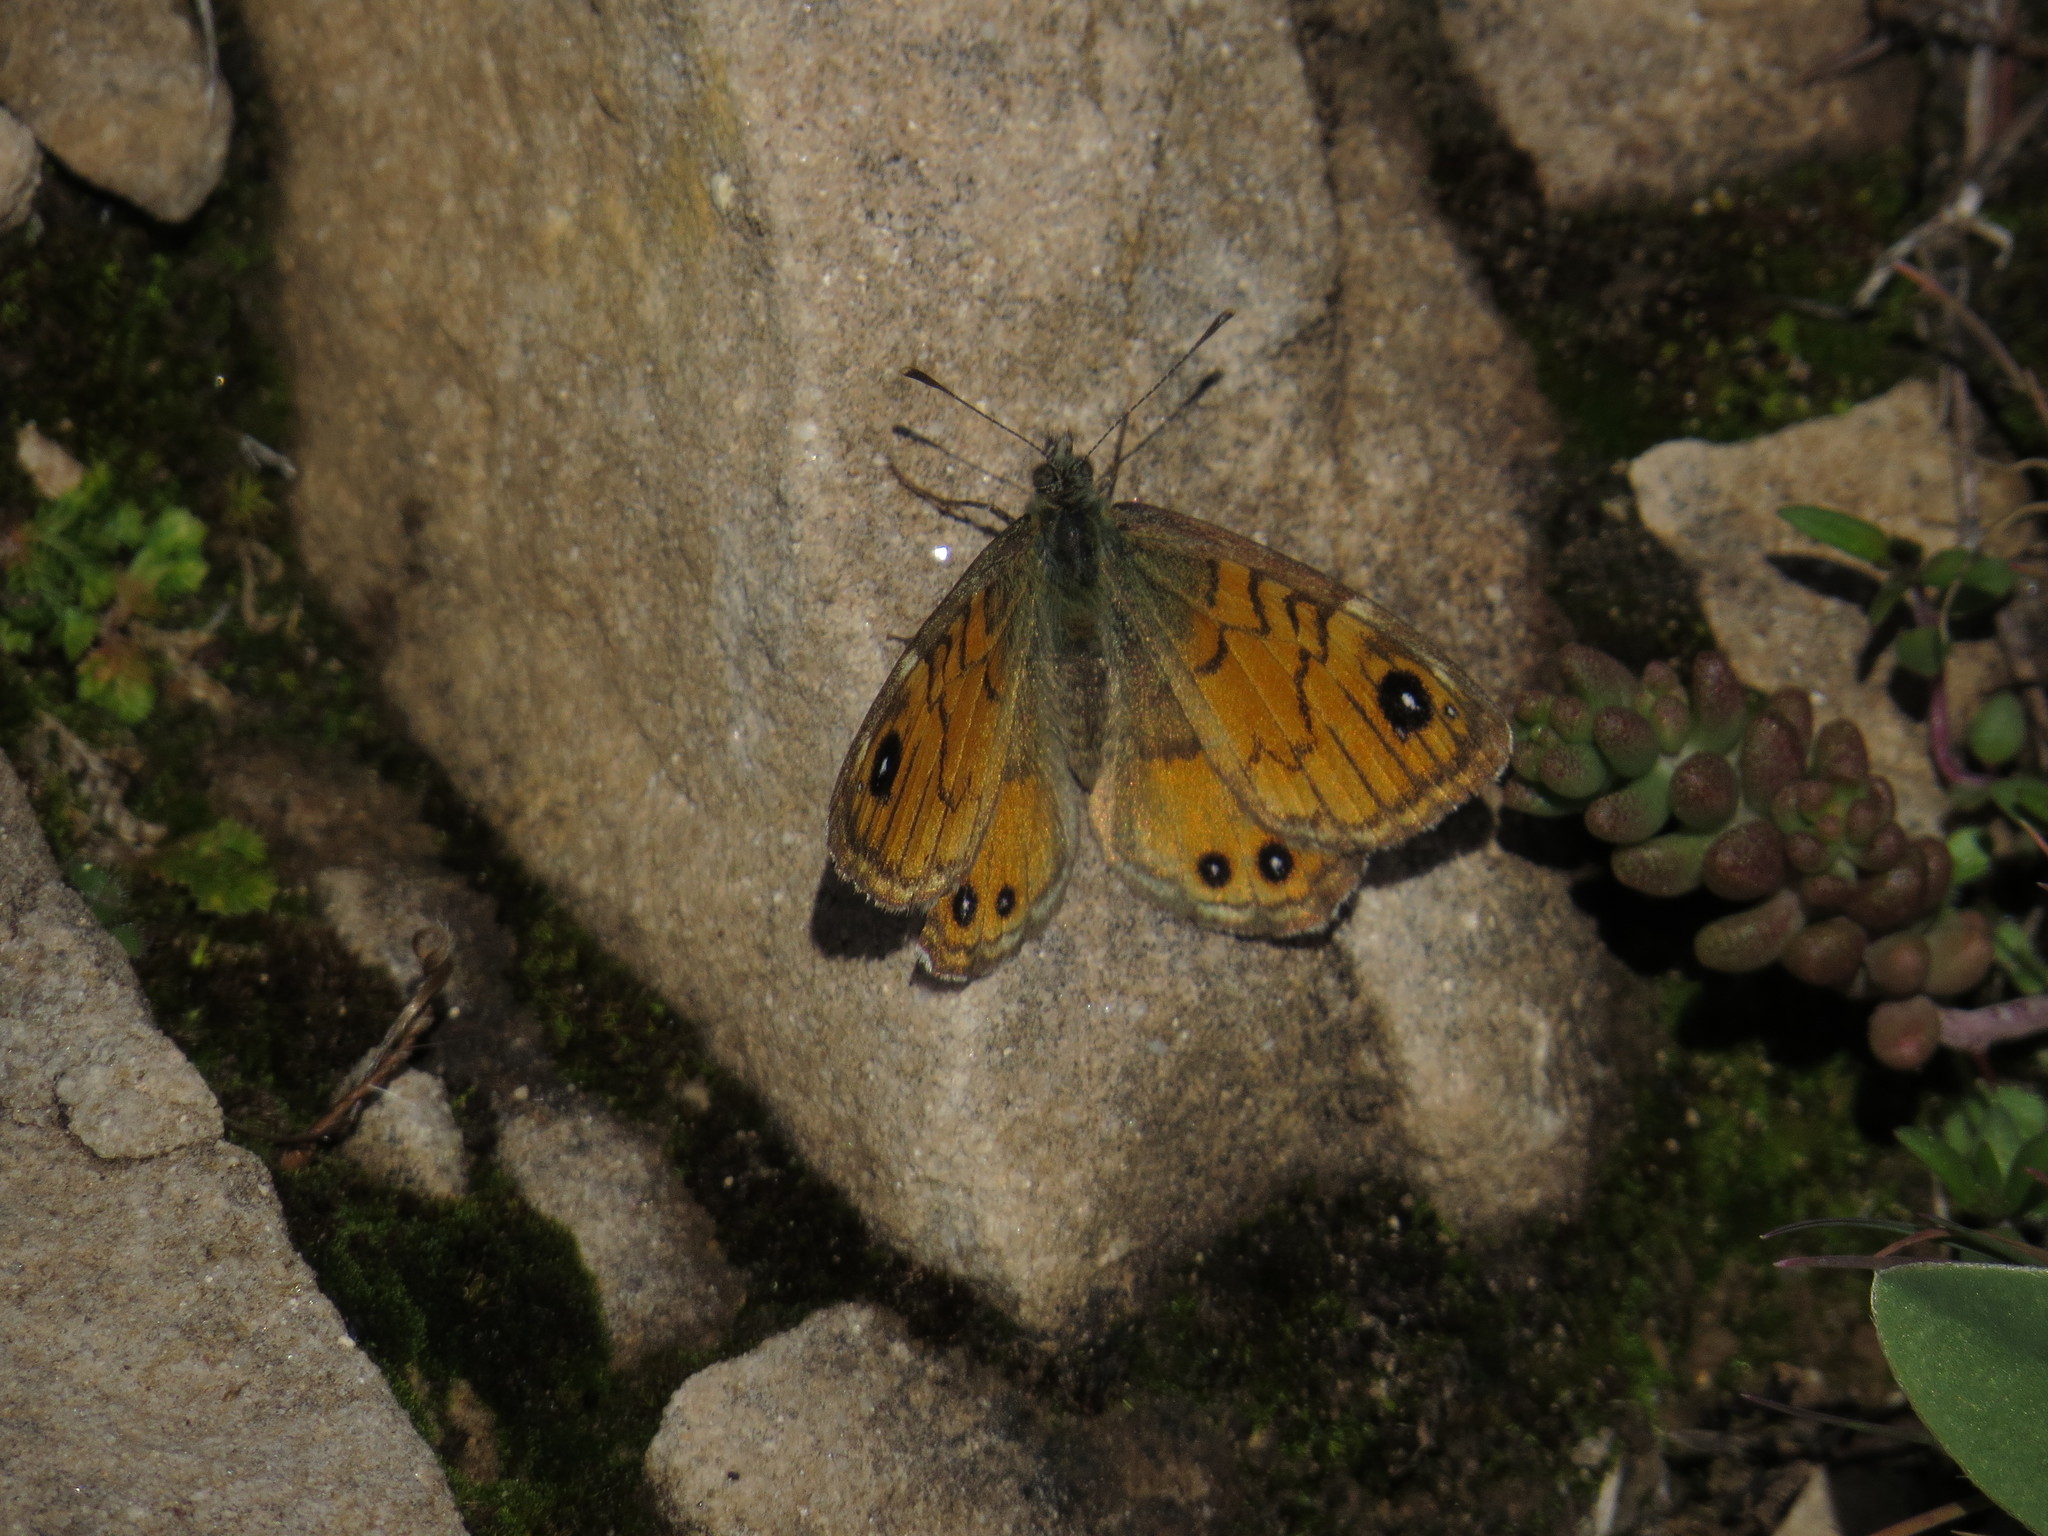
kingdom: Animalia
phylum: Arthropoda
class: Insecta
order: Lepidoptera
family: Nymphalidae
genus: Pararge
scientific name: Pararge Lasiommata paramegaera
